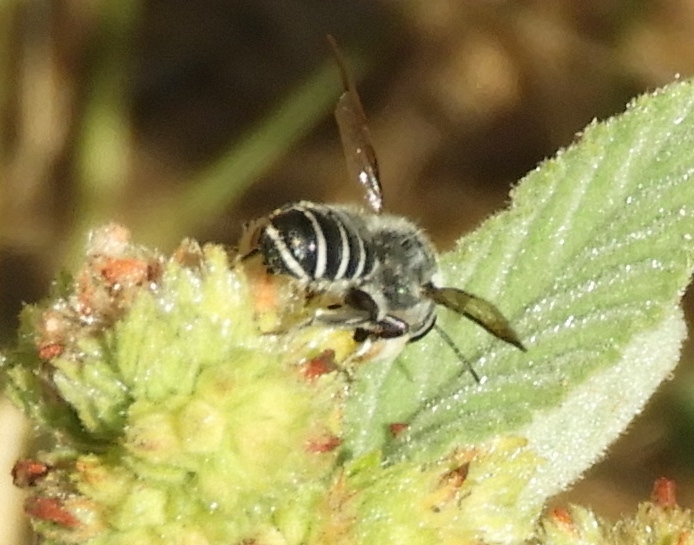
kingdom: Animalia
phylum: Arthropoda
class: Insecta
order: Hymenoptera
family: Megachilidae
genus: Megachile
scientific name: Megachile
